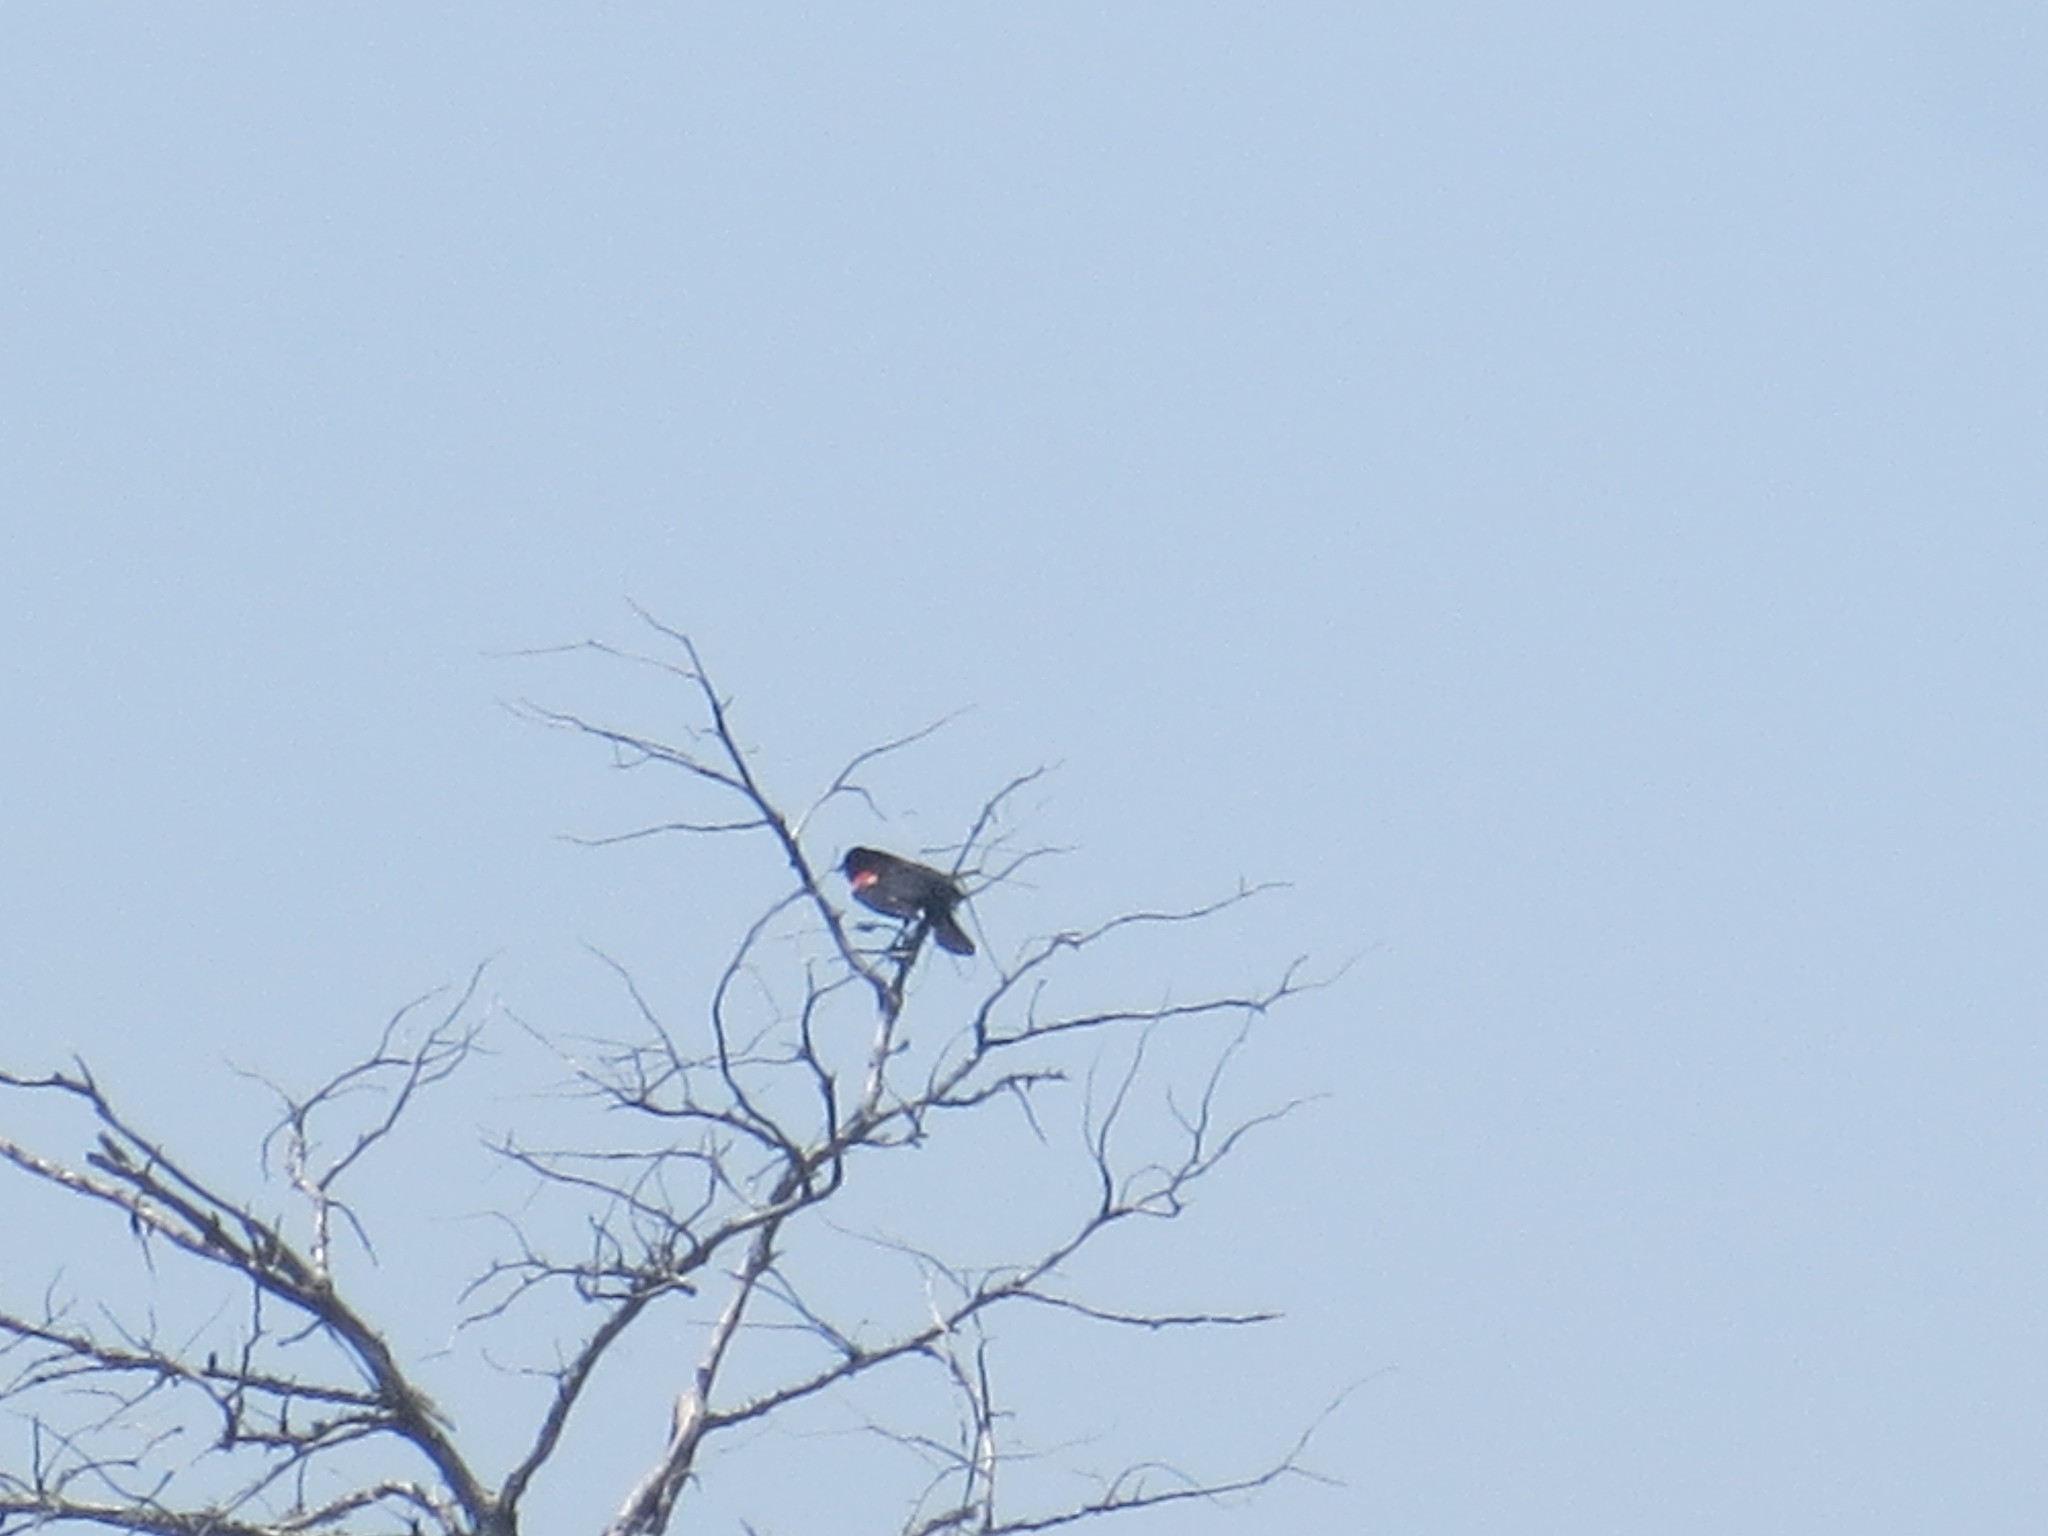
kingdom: Animalia
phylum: Chordata
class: Aves
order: Passeriformes
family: Icteridae
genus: Agelaius
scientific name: Agelaius phoeniceus
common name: Red-winged blackbird
